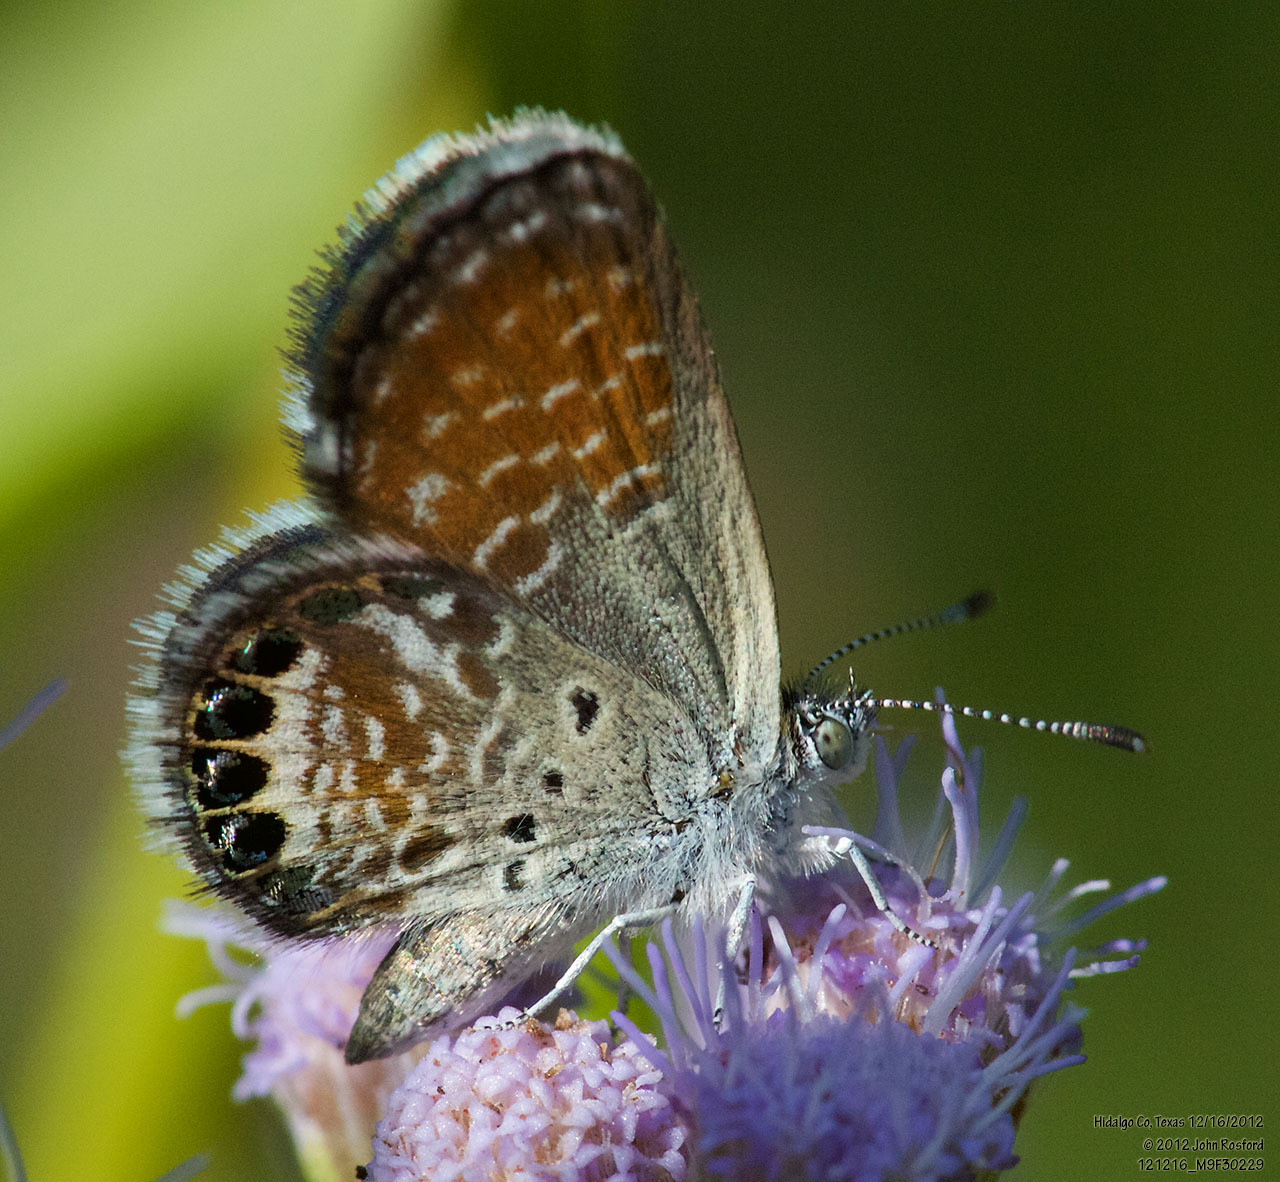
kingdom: Animalia
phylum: Arthropoda
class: Insecta
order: Lepidoptera
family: Lycaenidae
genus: Brephidium
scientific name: Brephidium exilis
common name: Pygmy blue
